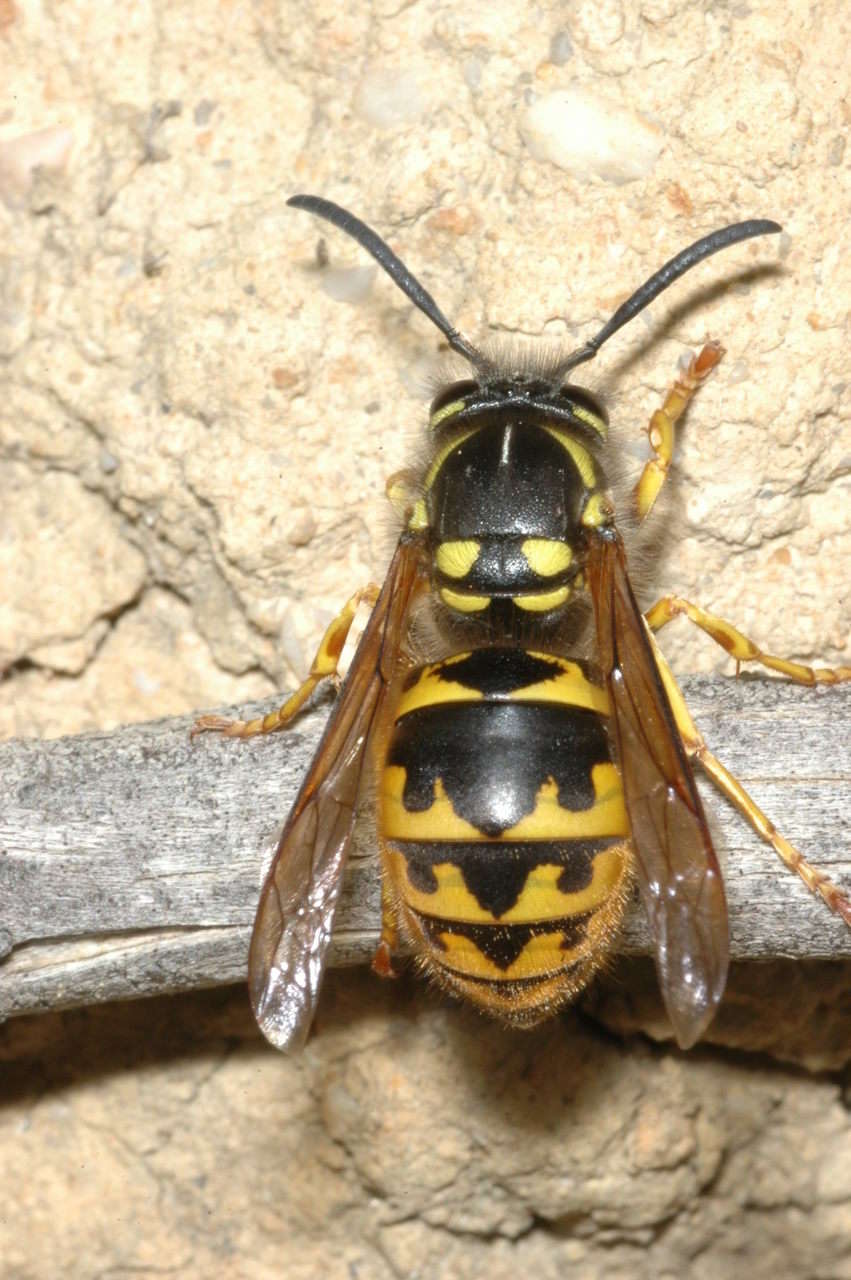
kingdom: Animalia
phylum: Arthropoda
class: Insecta
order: Hymenoptera
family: Vespidae
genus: Vespula
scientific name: Vespula germanica
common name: German wasp
